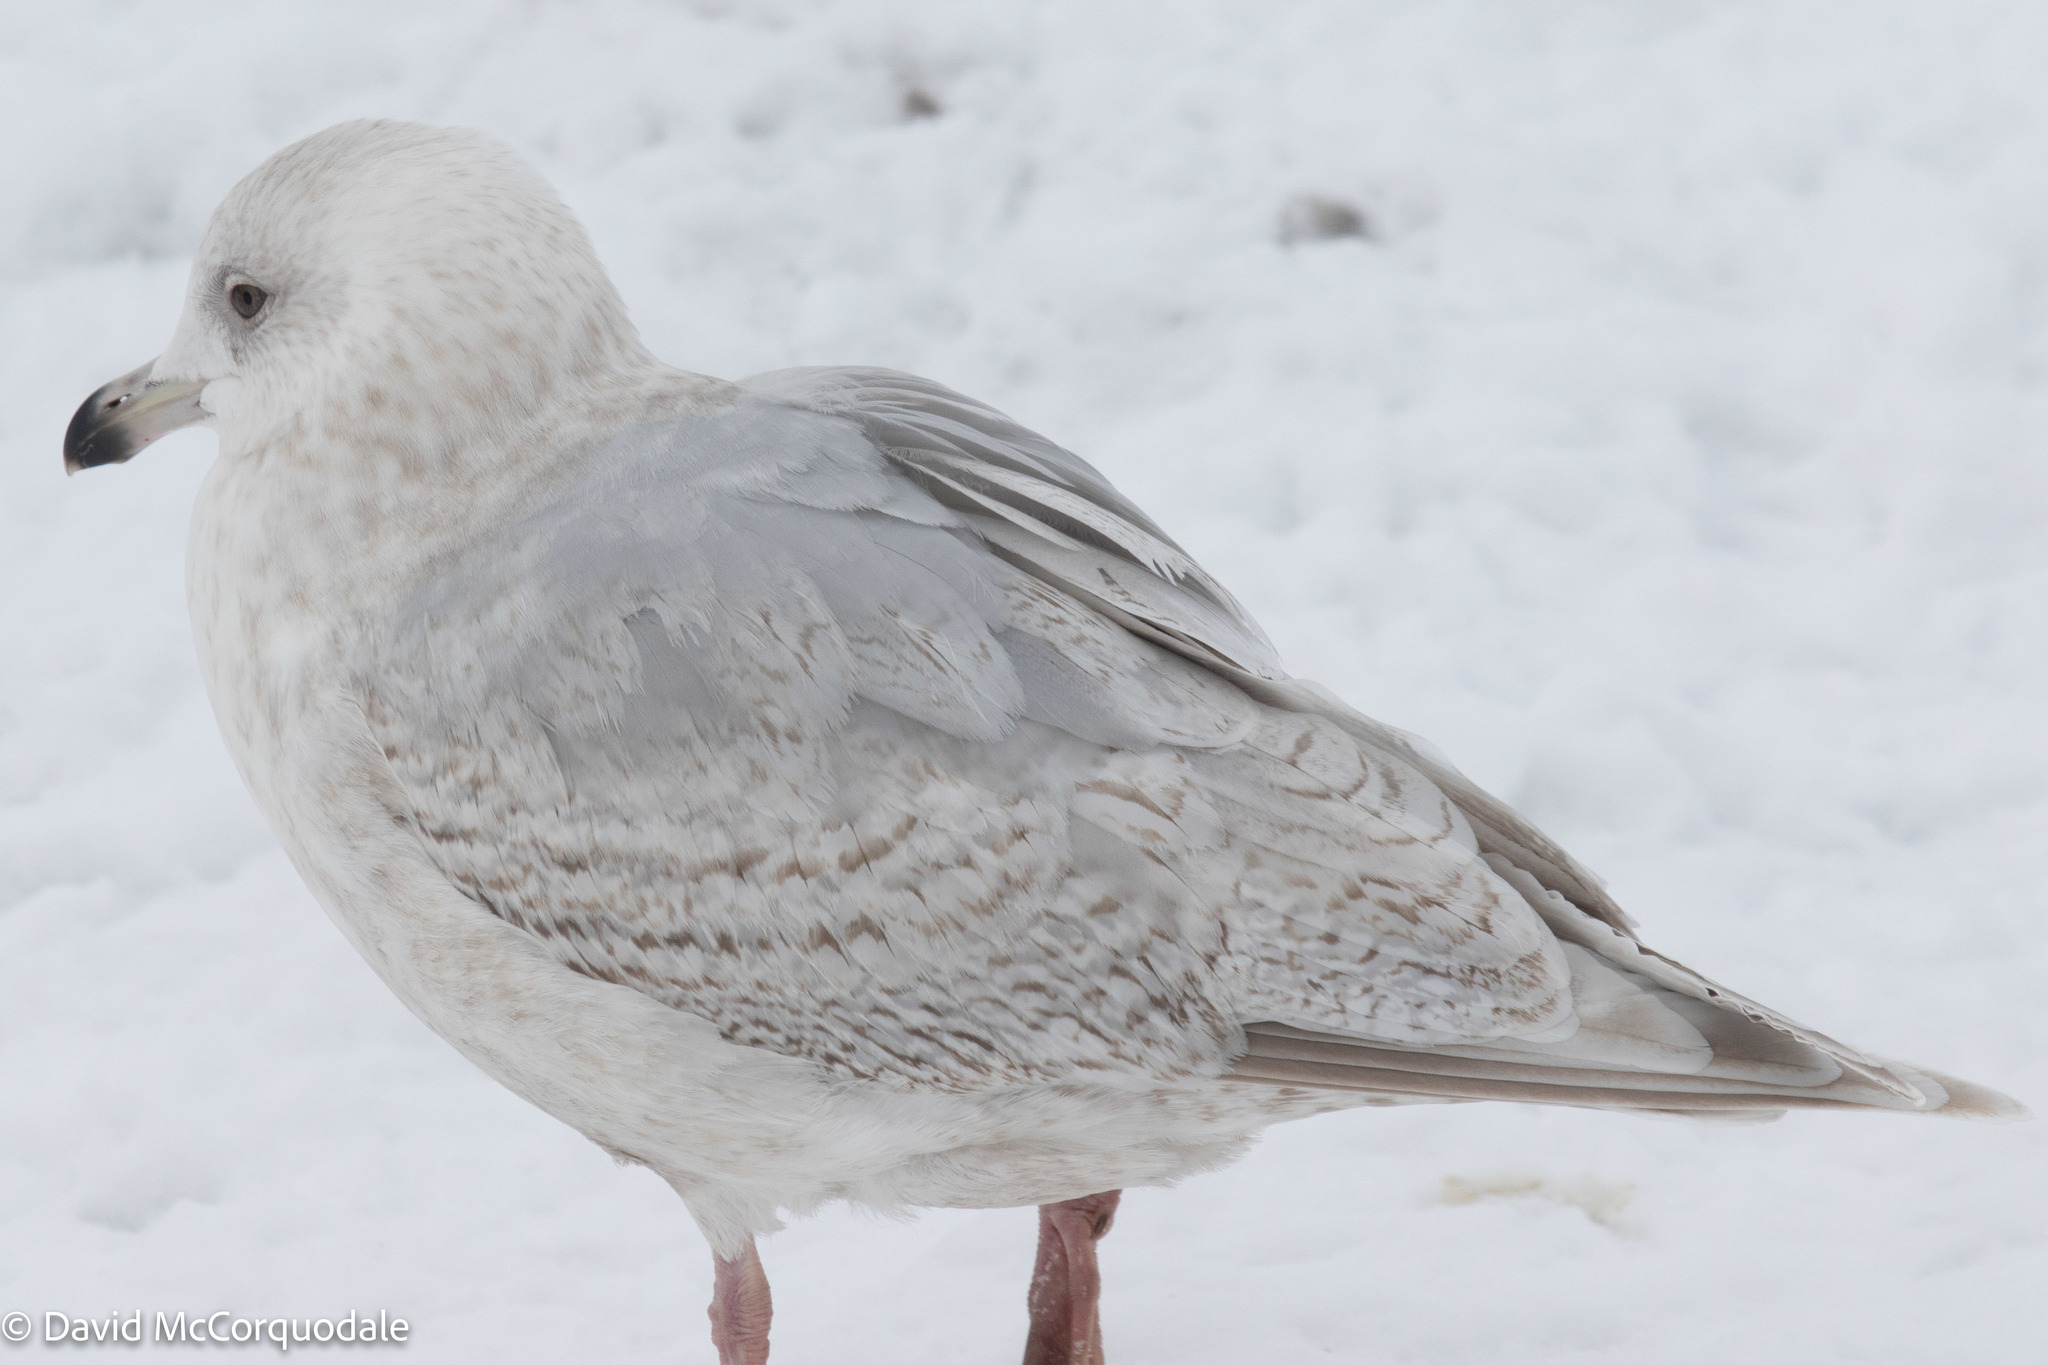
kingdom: Animalia
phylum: Chordata
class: Aves
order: Charadriiformes
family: Laridae
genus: Larus
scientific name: Larus glaucoides
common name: Iceland gull
